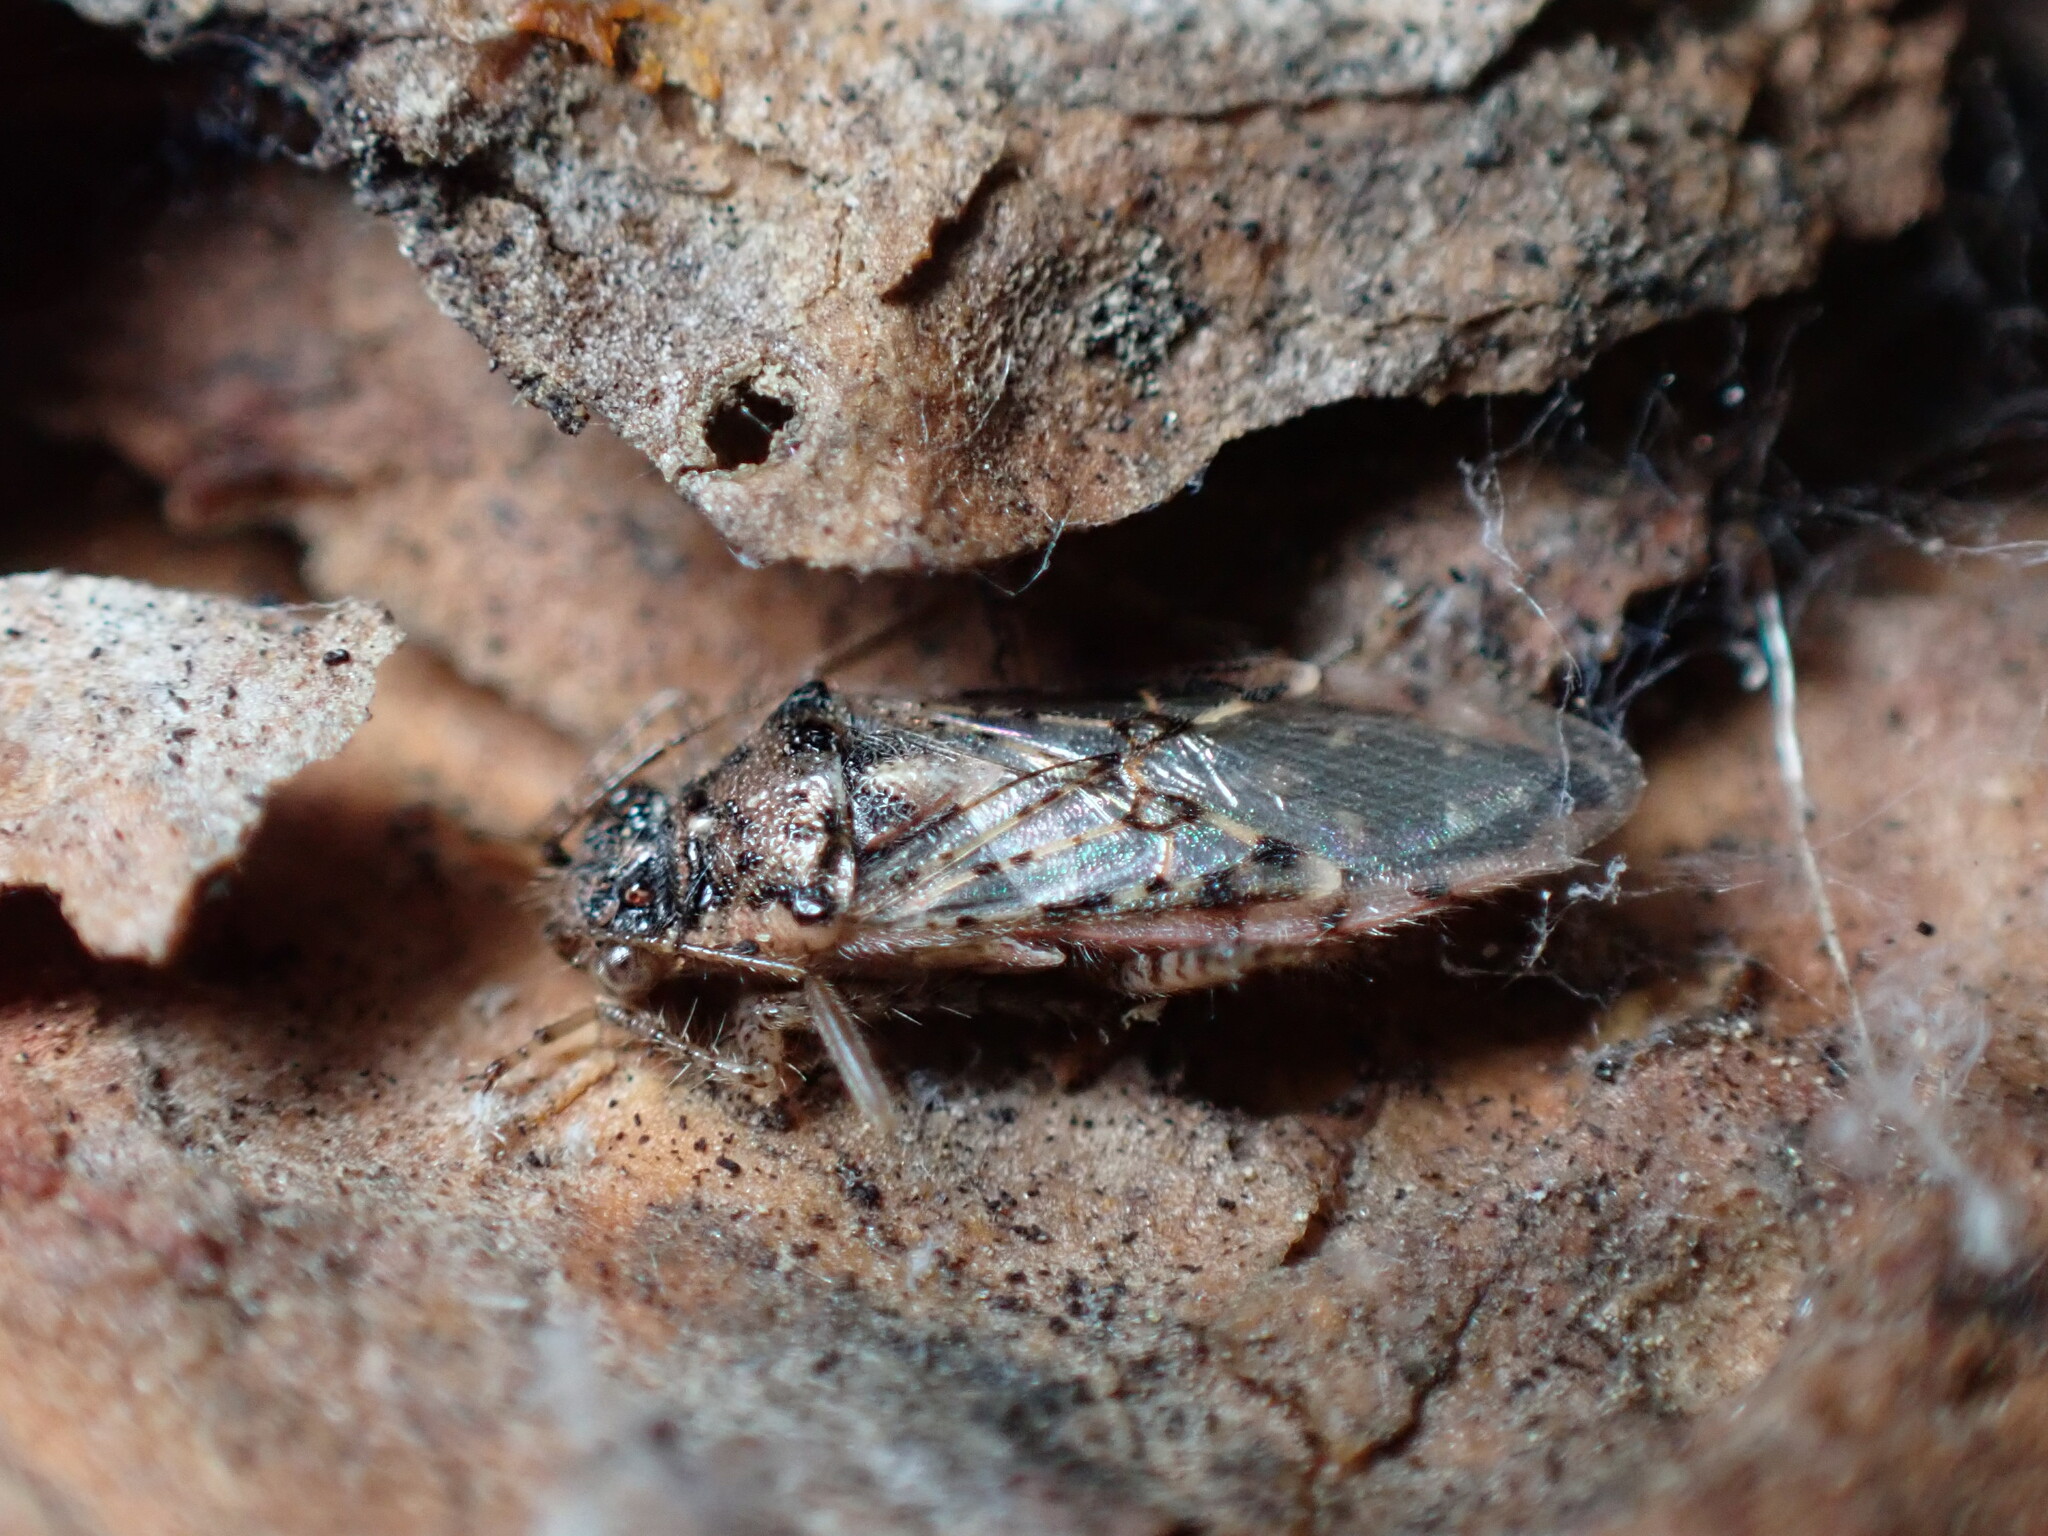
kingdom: Animalia
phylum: Arthropoda
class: Insecta
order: Hemiptera
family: Rhopalidae
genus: Brachycarenus
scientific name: Brachycarenus tigrinus
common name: Scentless plant bug
